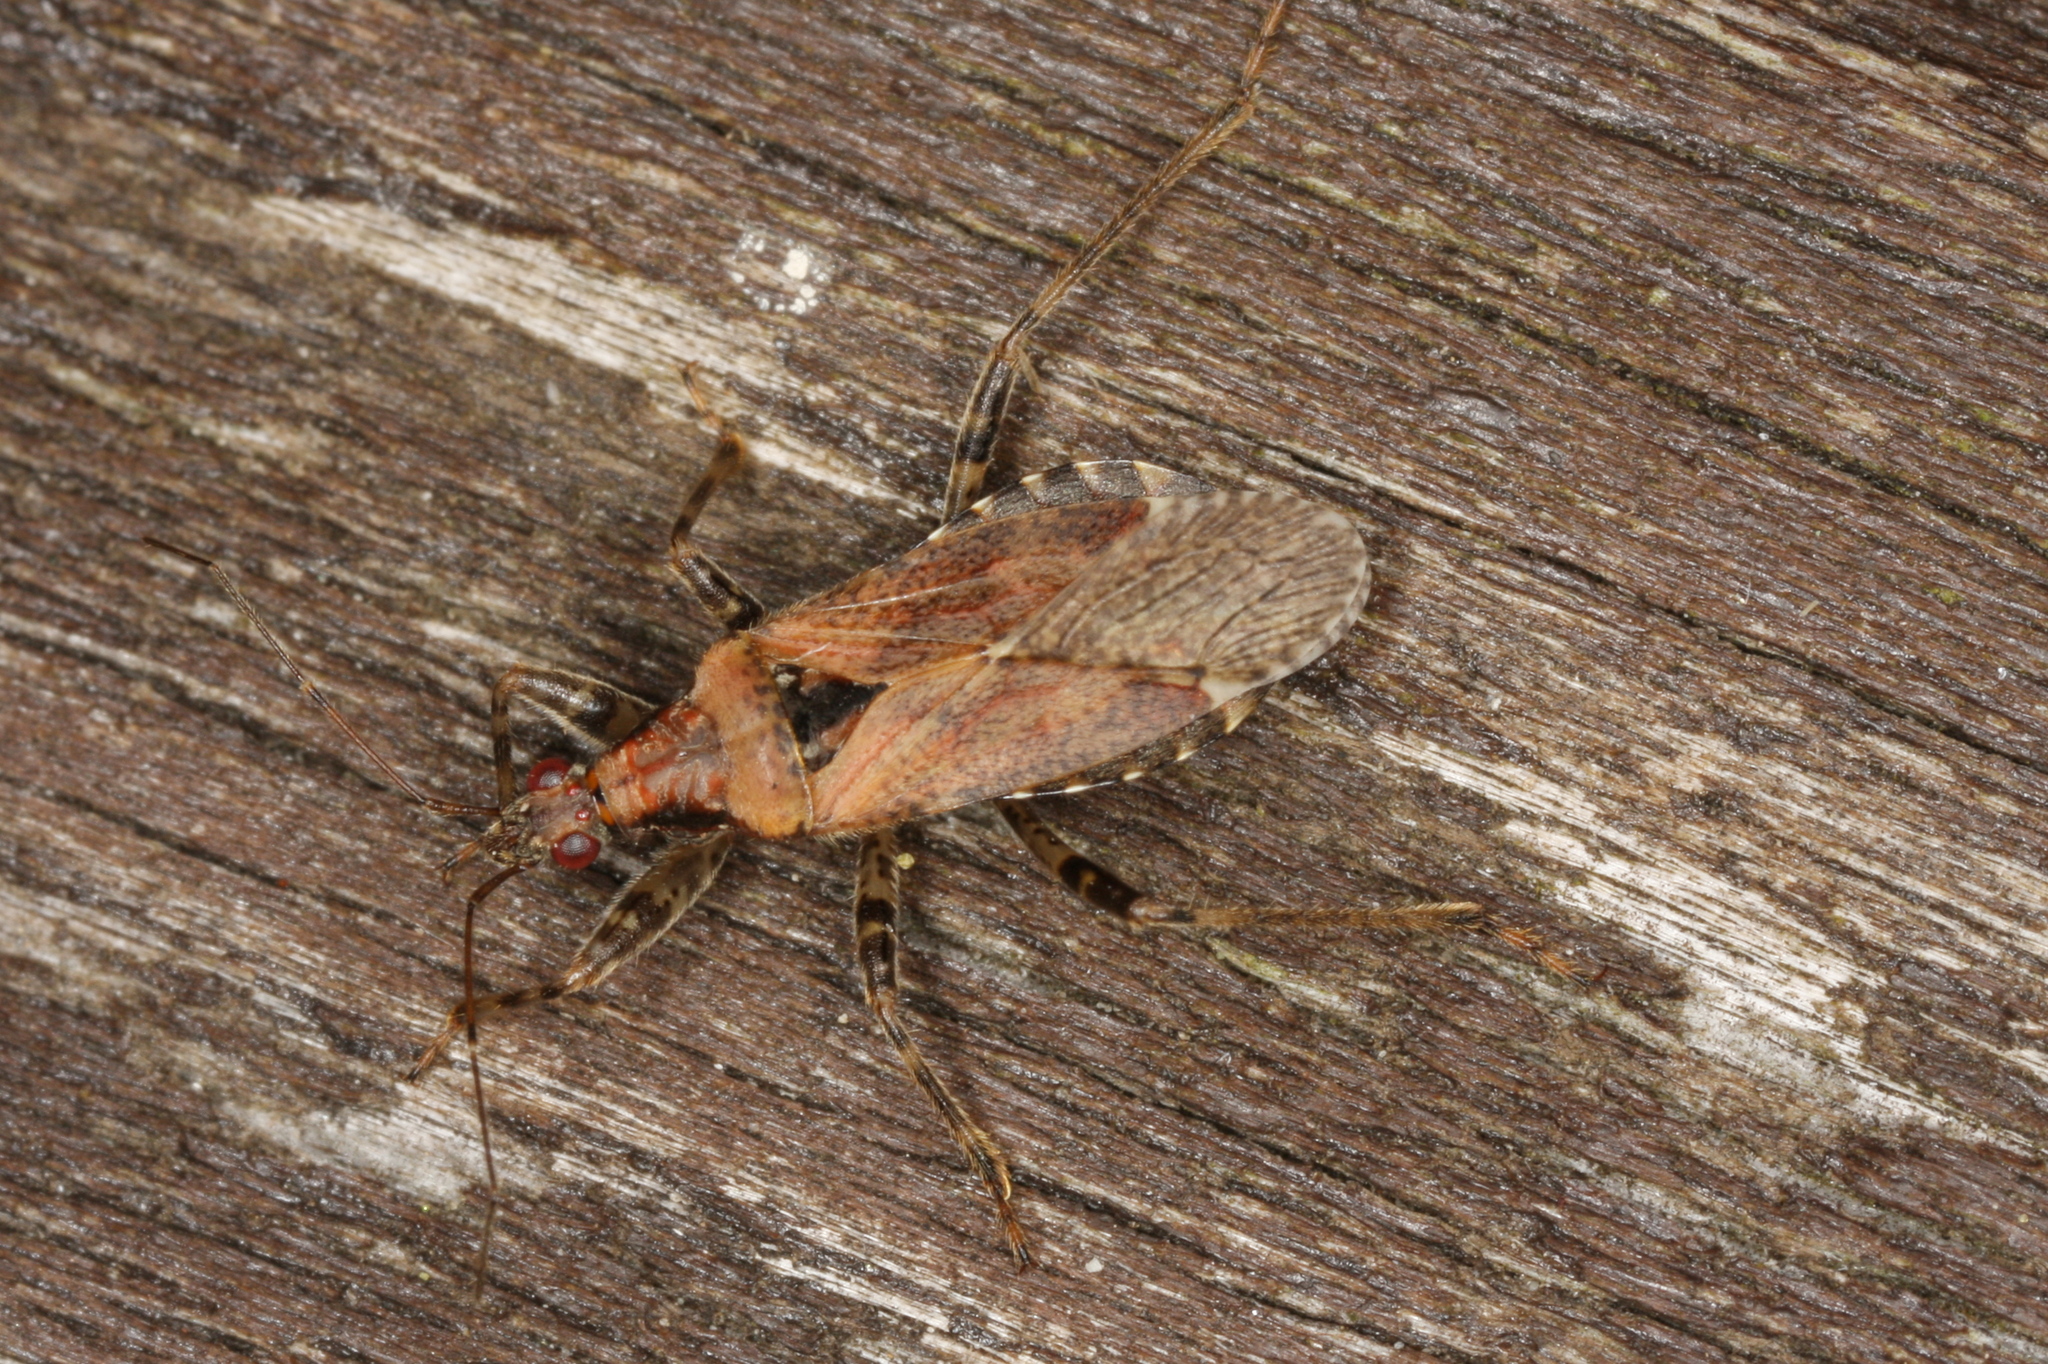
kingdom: Animalia
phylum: Arthropoda
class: Insecta
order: Hemiptera
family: Nabidae
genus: Himacerus
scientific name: Himacerus mirmicoides
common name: Ant damsel bug
